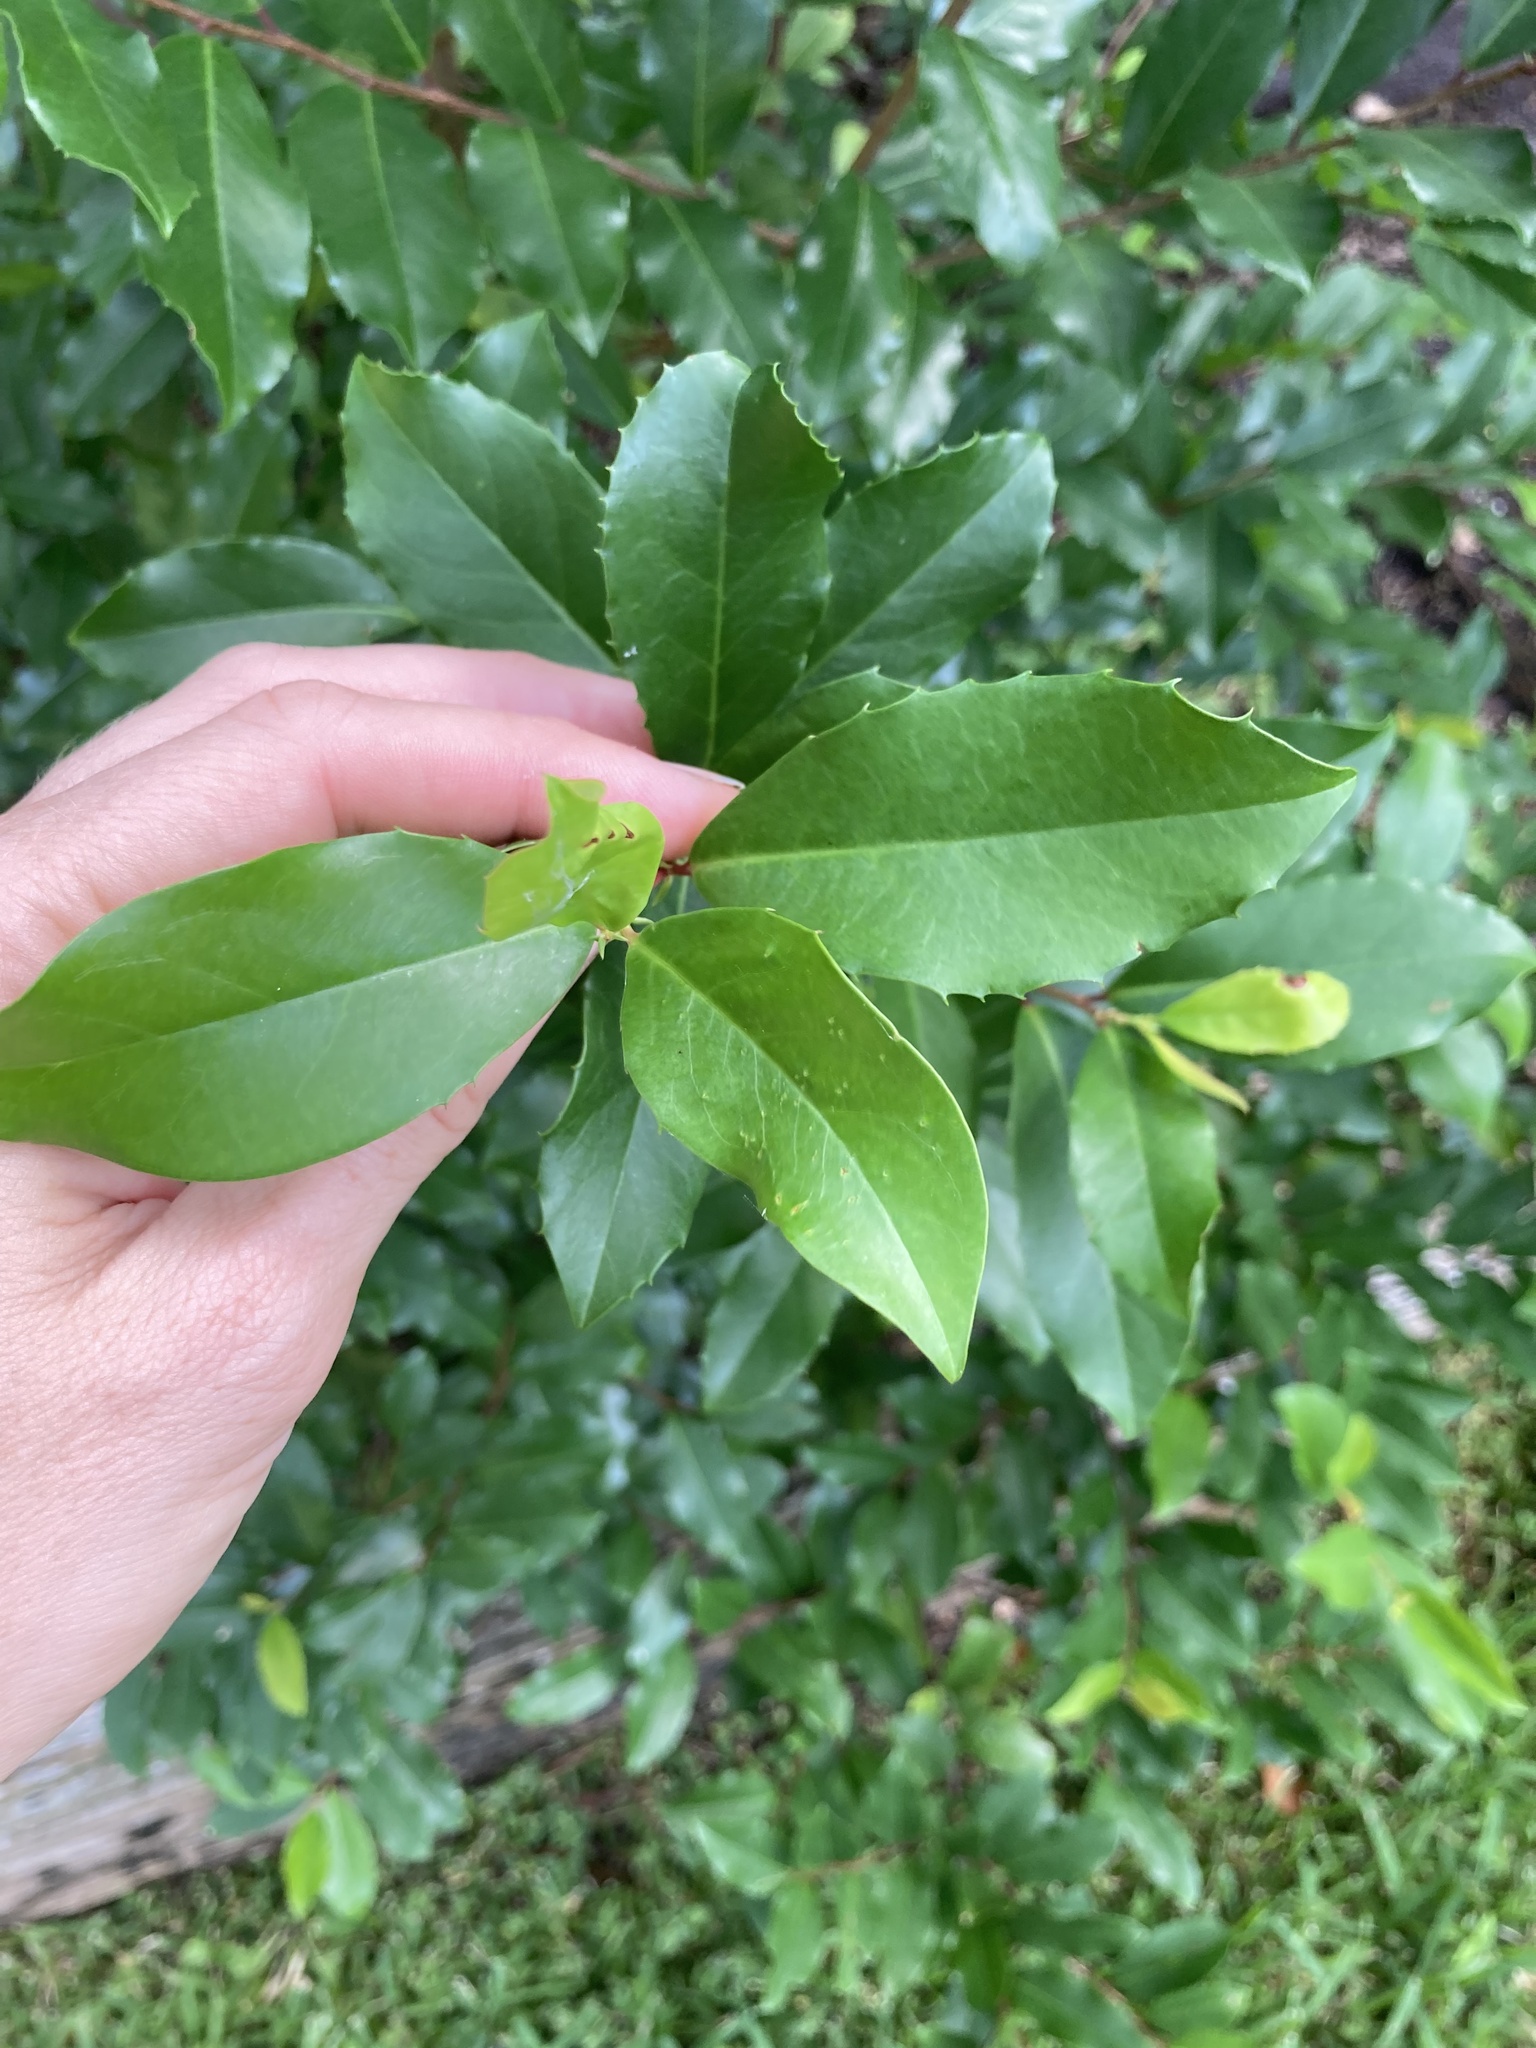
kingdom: Plantae
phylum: Tracheophyta
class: Magnoliopsida
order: Rosales
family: Rosaceae
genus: Prunus
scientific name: Prunus caroliniana
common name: Carolina laurel cherry
